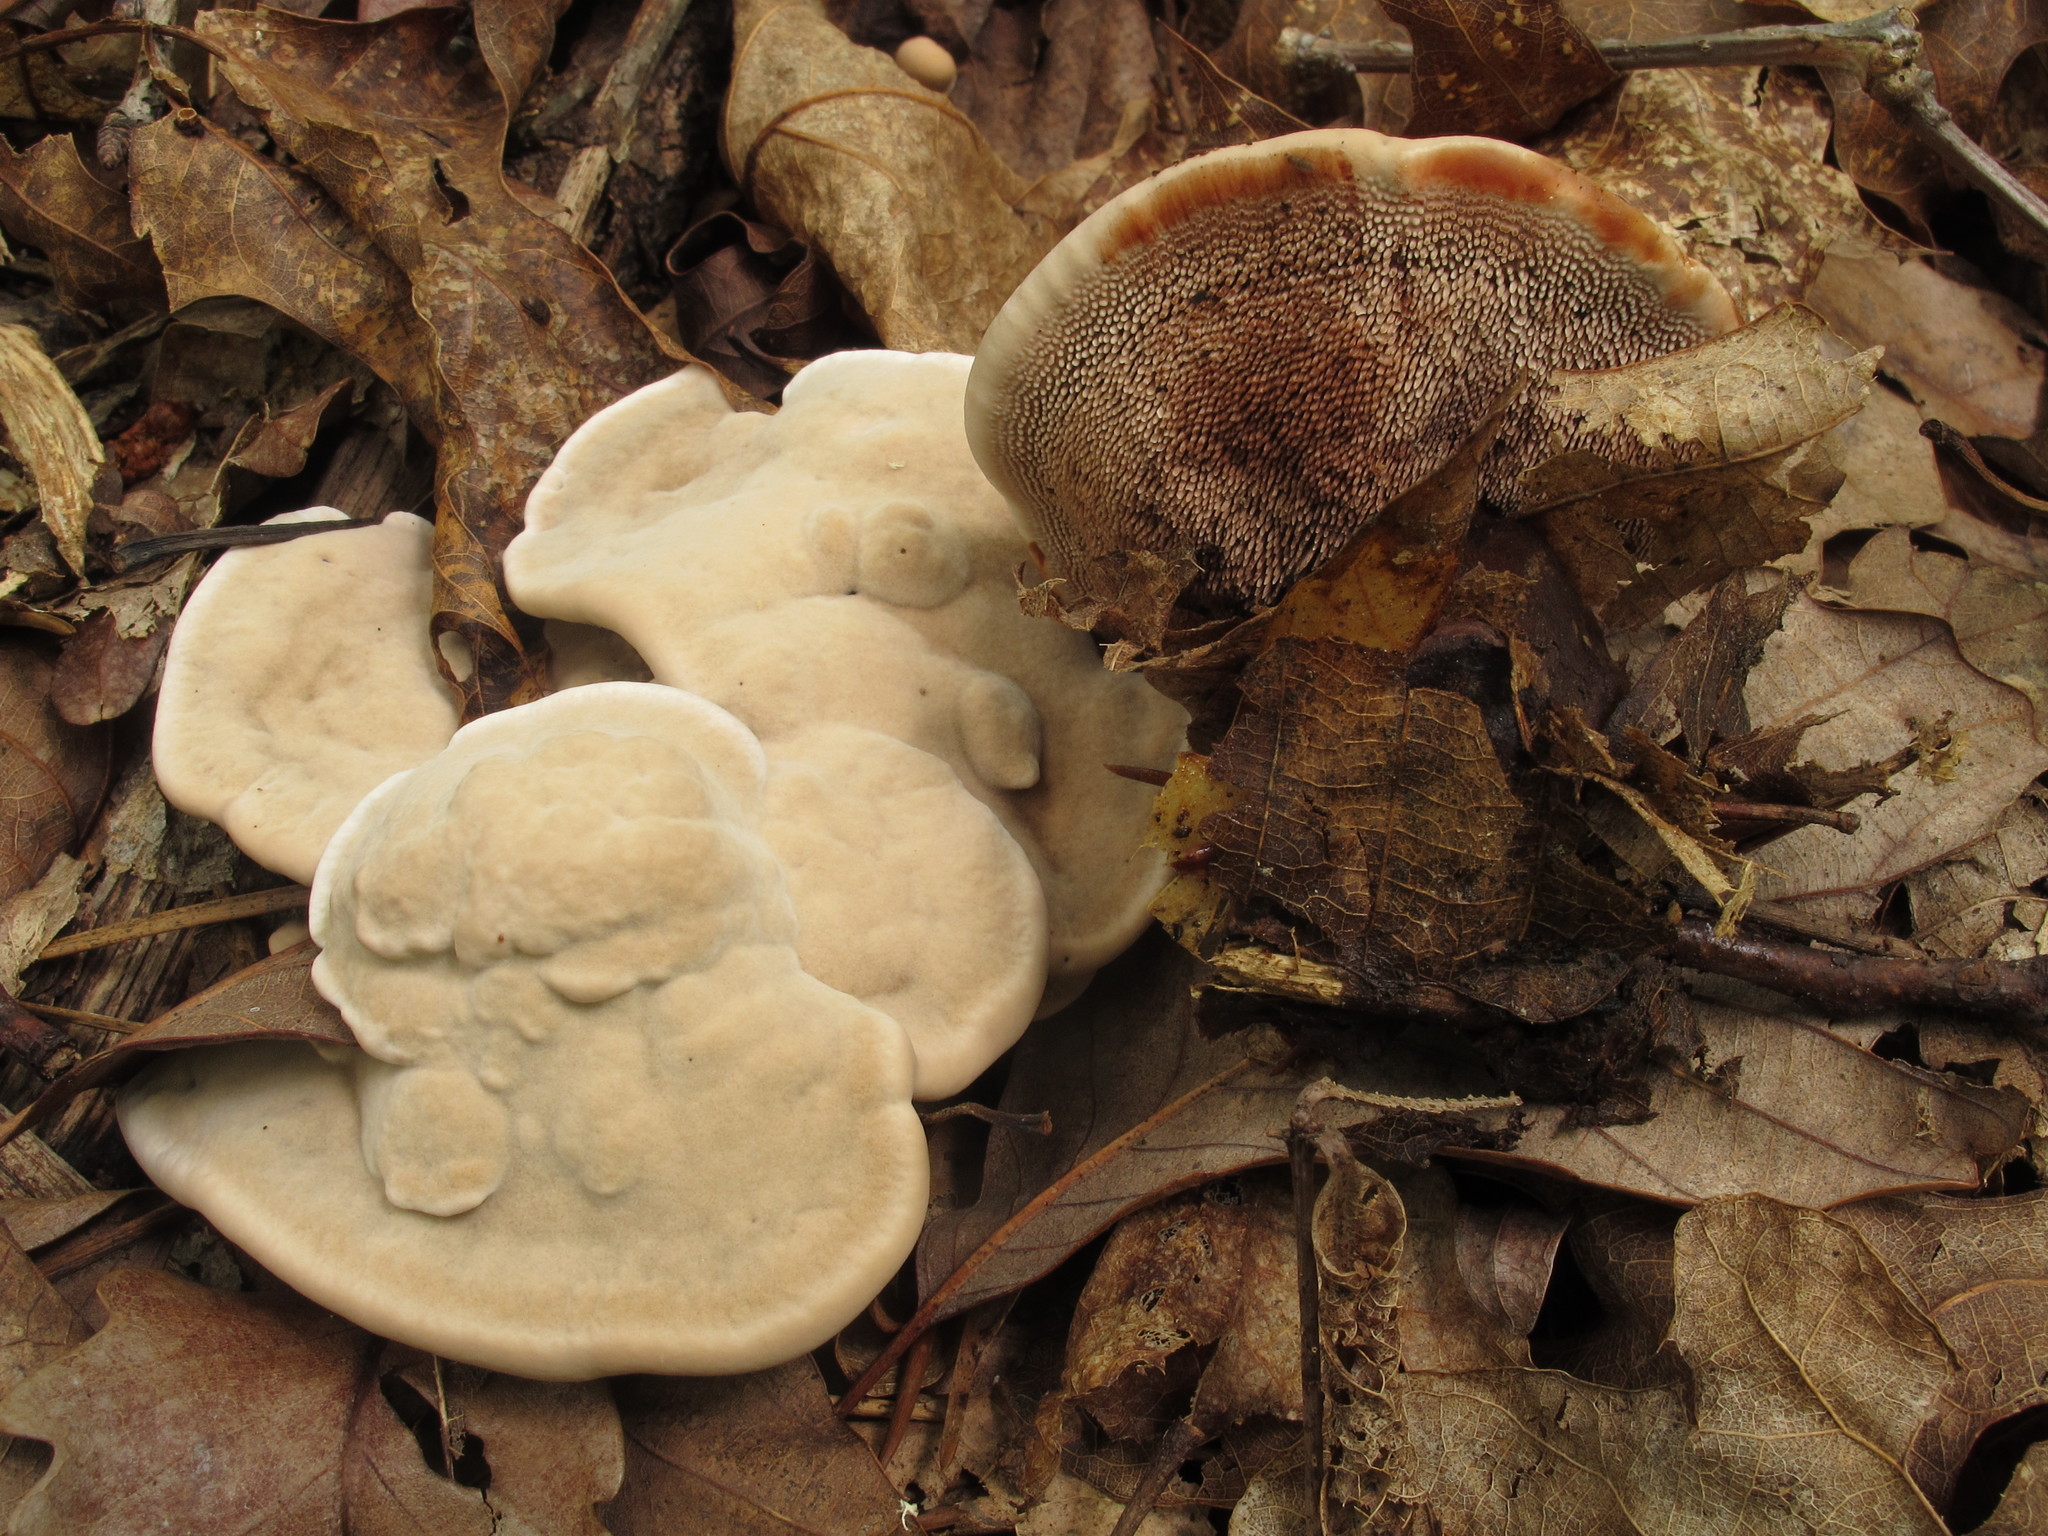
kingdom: Fungi
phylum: Basidiomycota
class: Agaricomycetes
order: Thelephorales
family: Bankeraceae
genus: Hydnellum
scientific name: Hydnellum spongiosipes
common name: Velvet tooth
